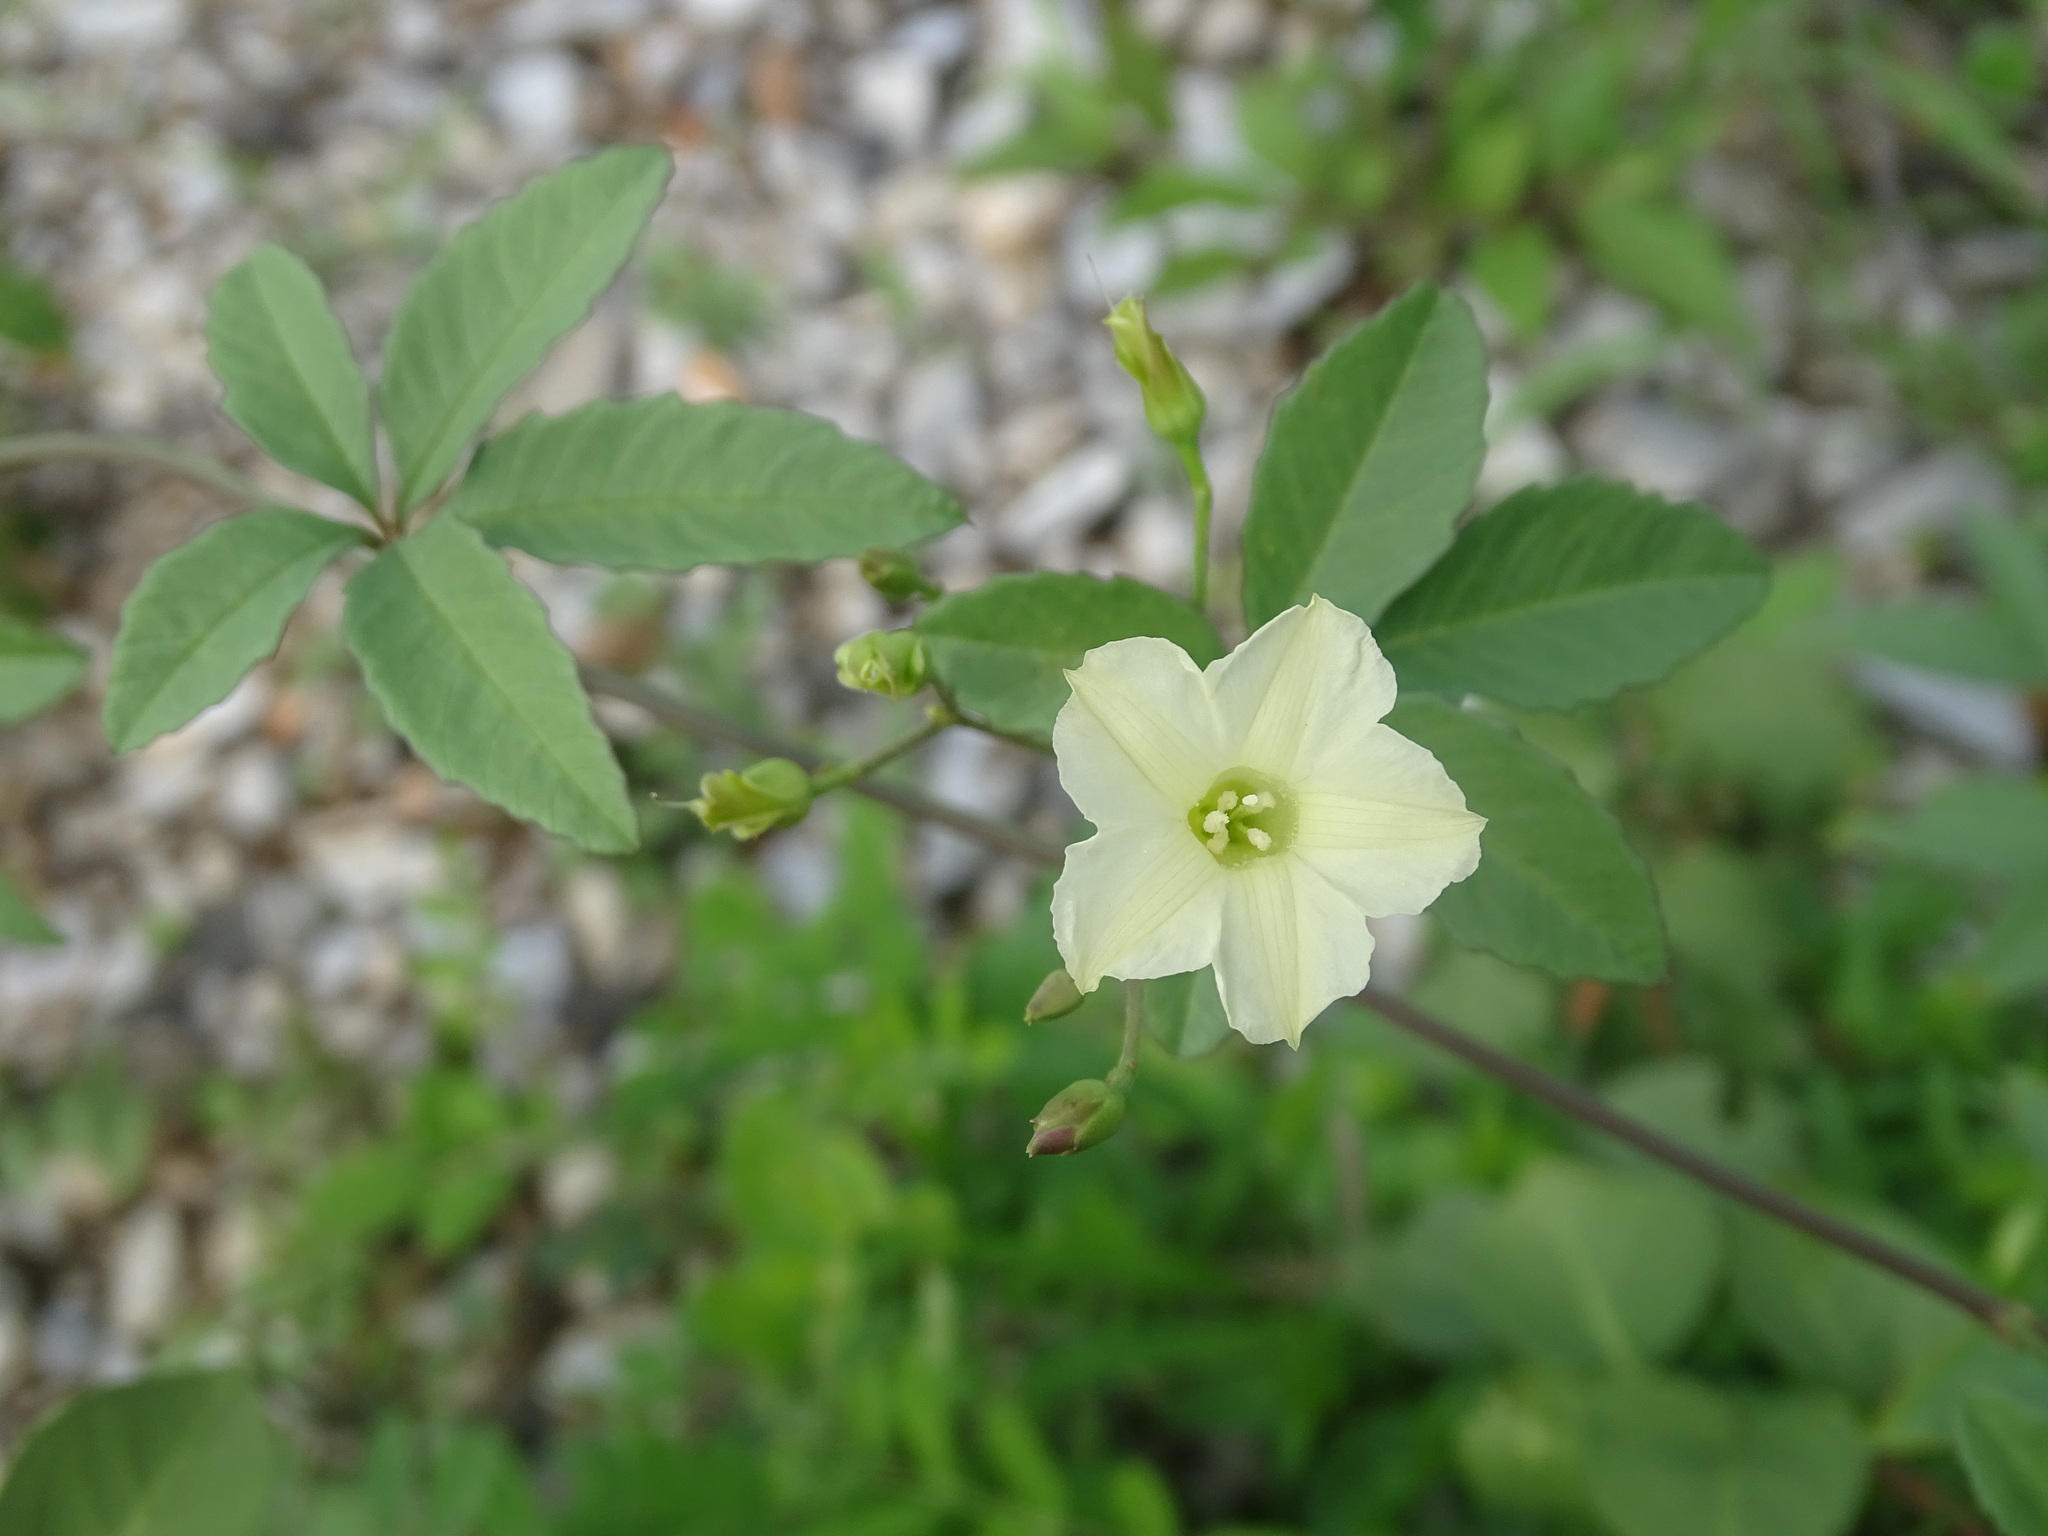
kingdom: Plantae
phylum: Tracheophyta
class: Magnoliopsida
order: Solanales
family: Convolvulaceae
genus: Distimake
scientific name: Distimake quinquefolius
